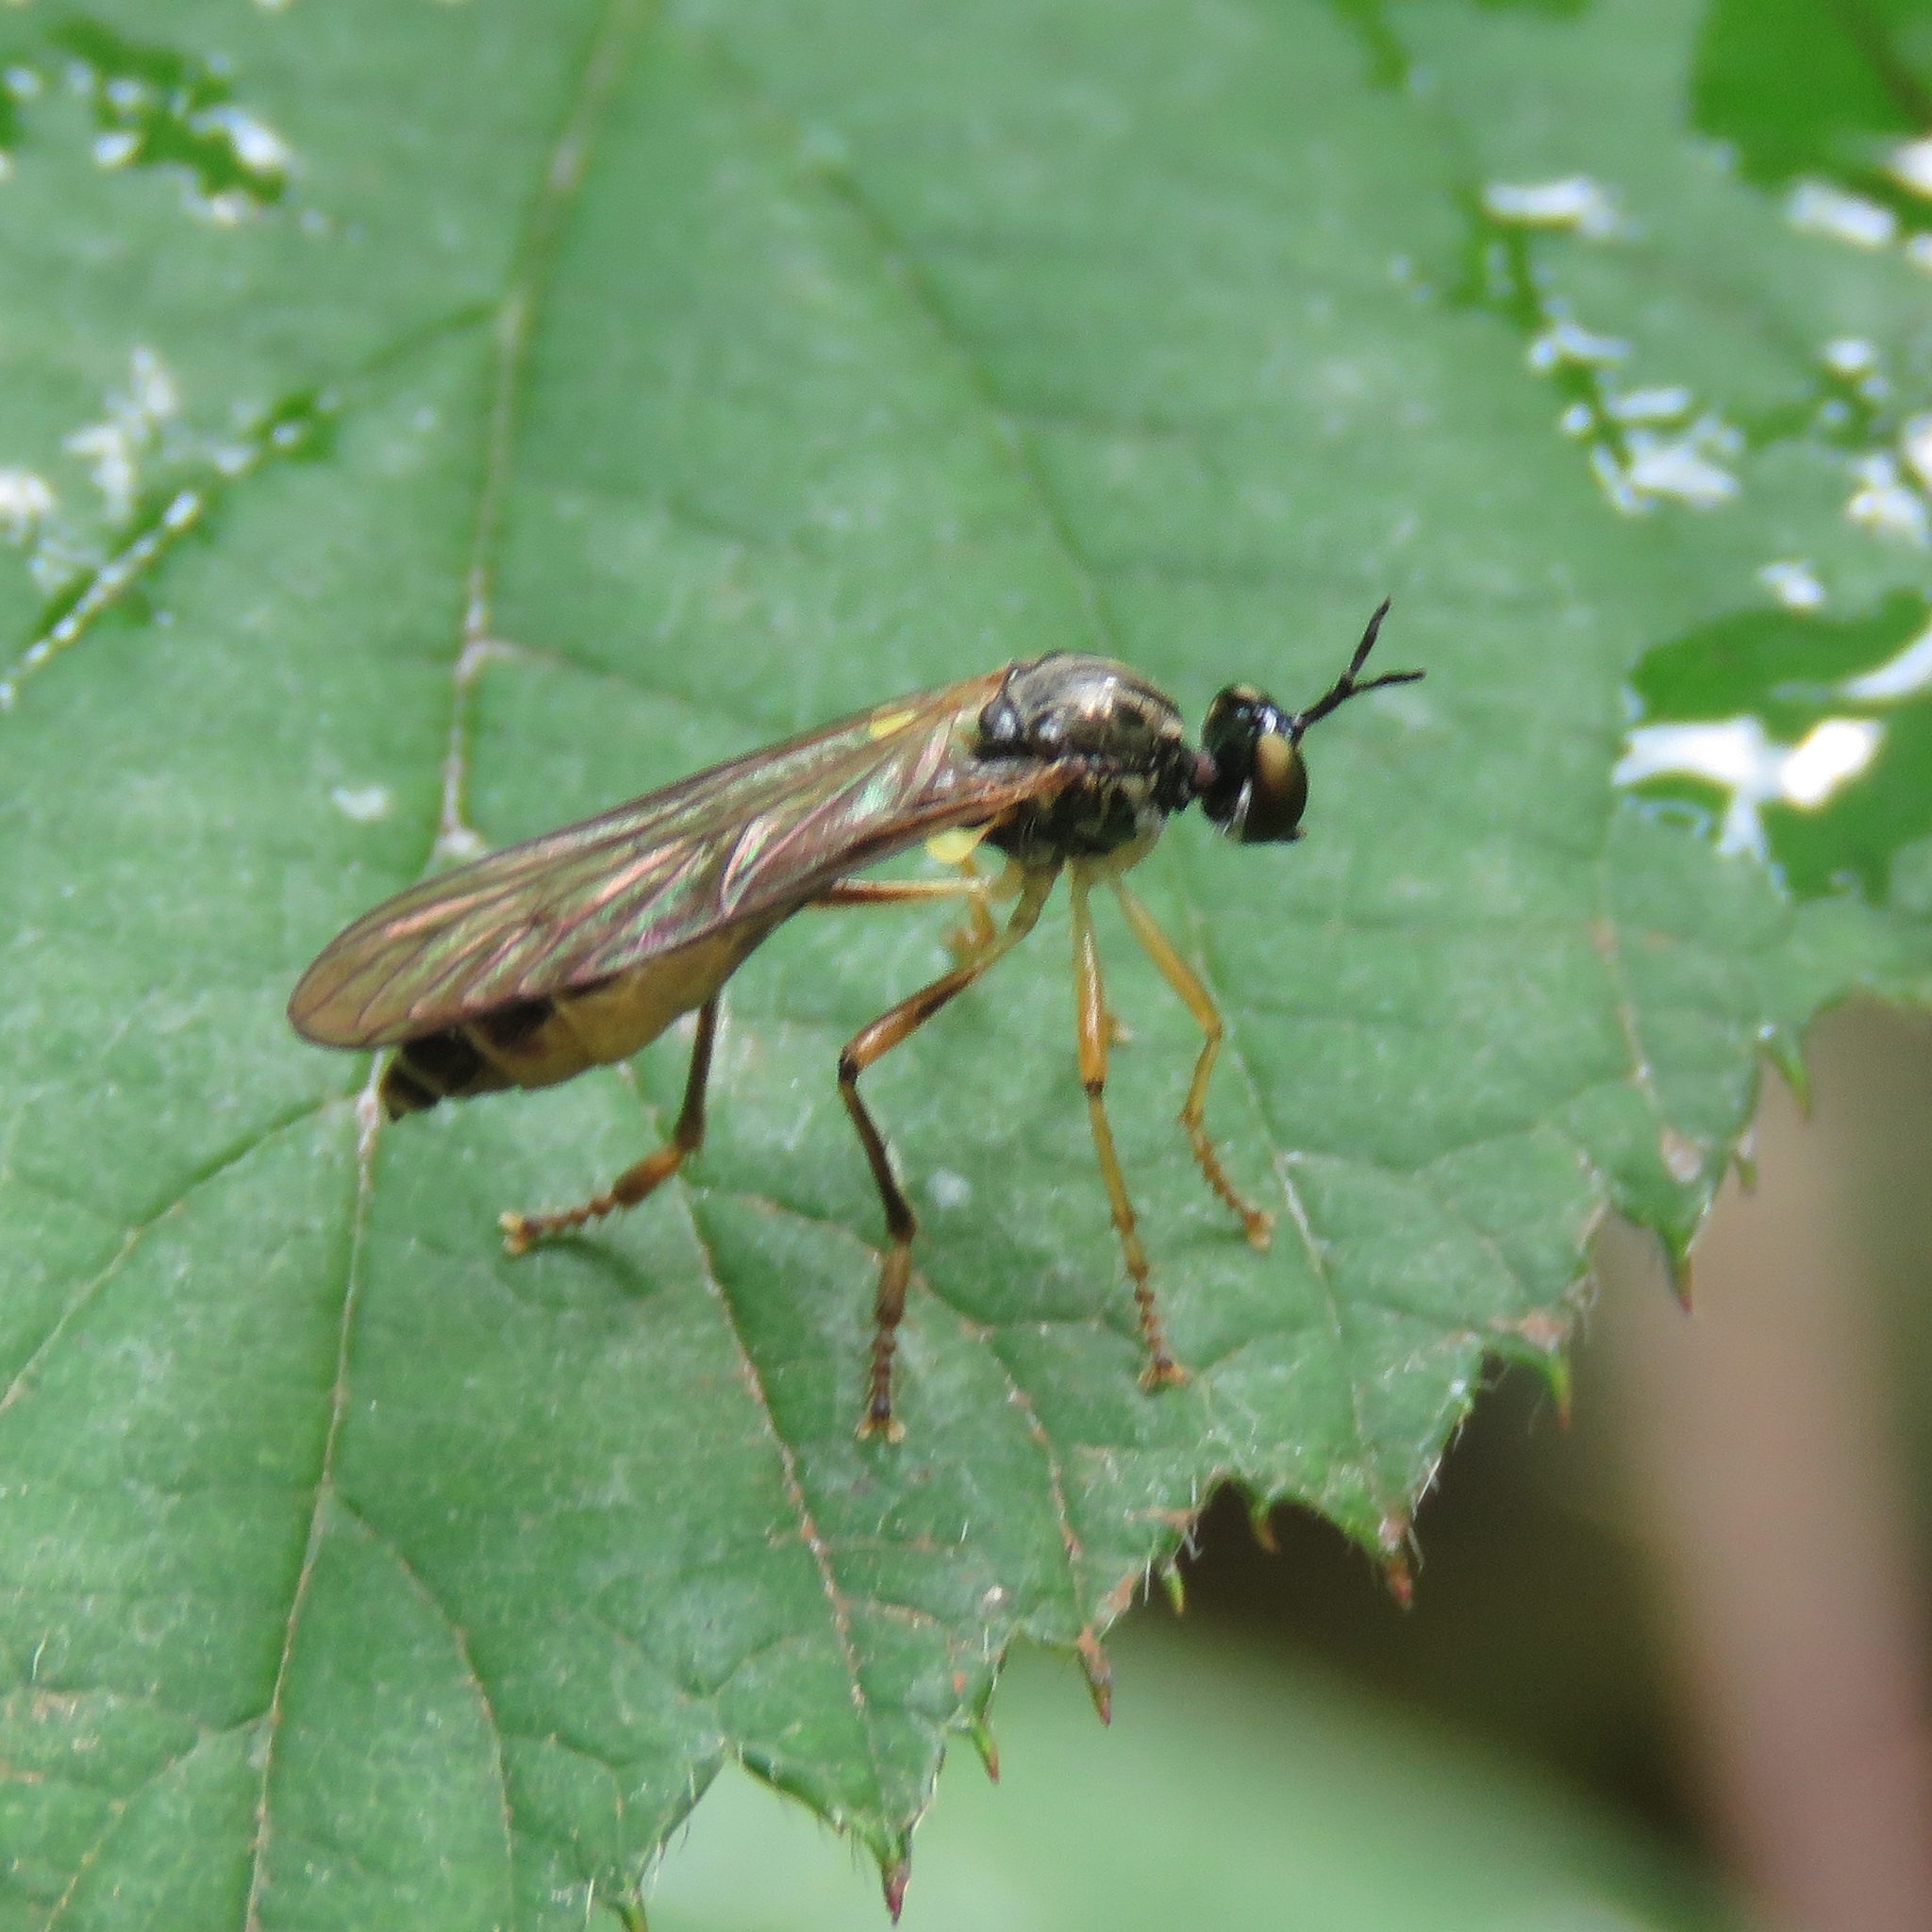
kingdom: Animalia
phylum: Arthropoda
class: Insecta
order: Diptera
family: Asilidae
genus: Dioctria
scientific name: Dioctria linearis
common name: Small yellow-legged robberfly
